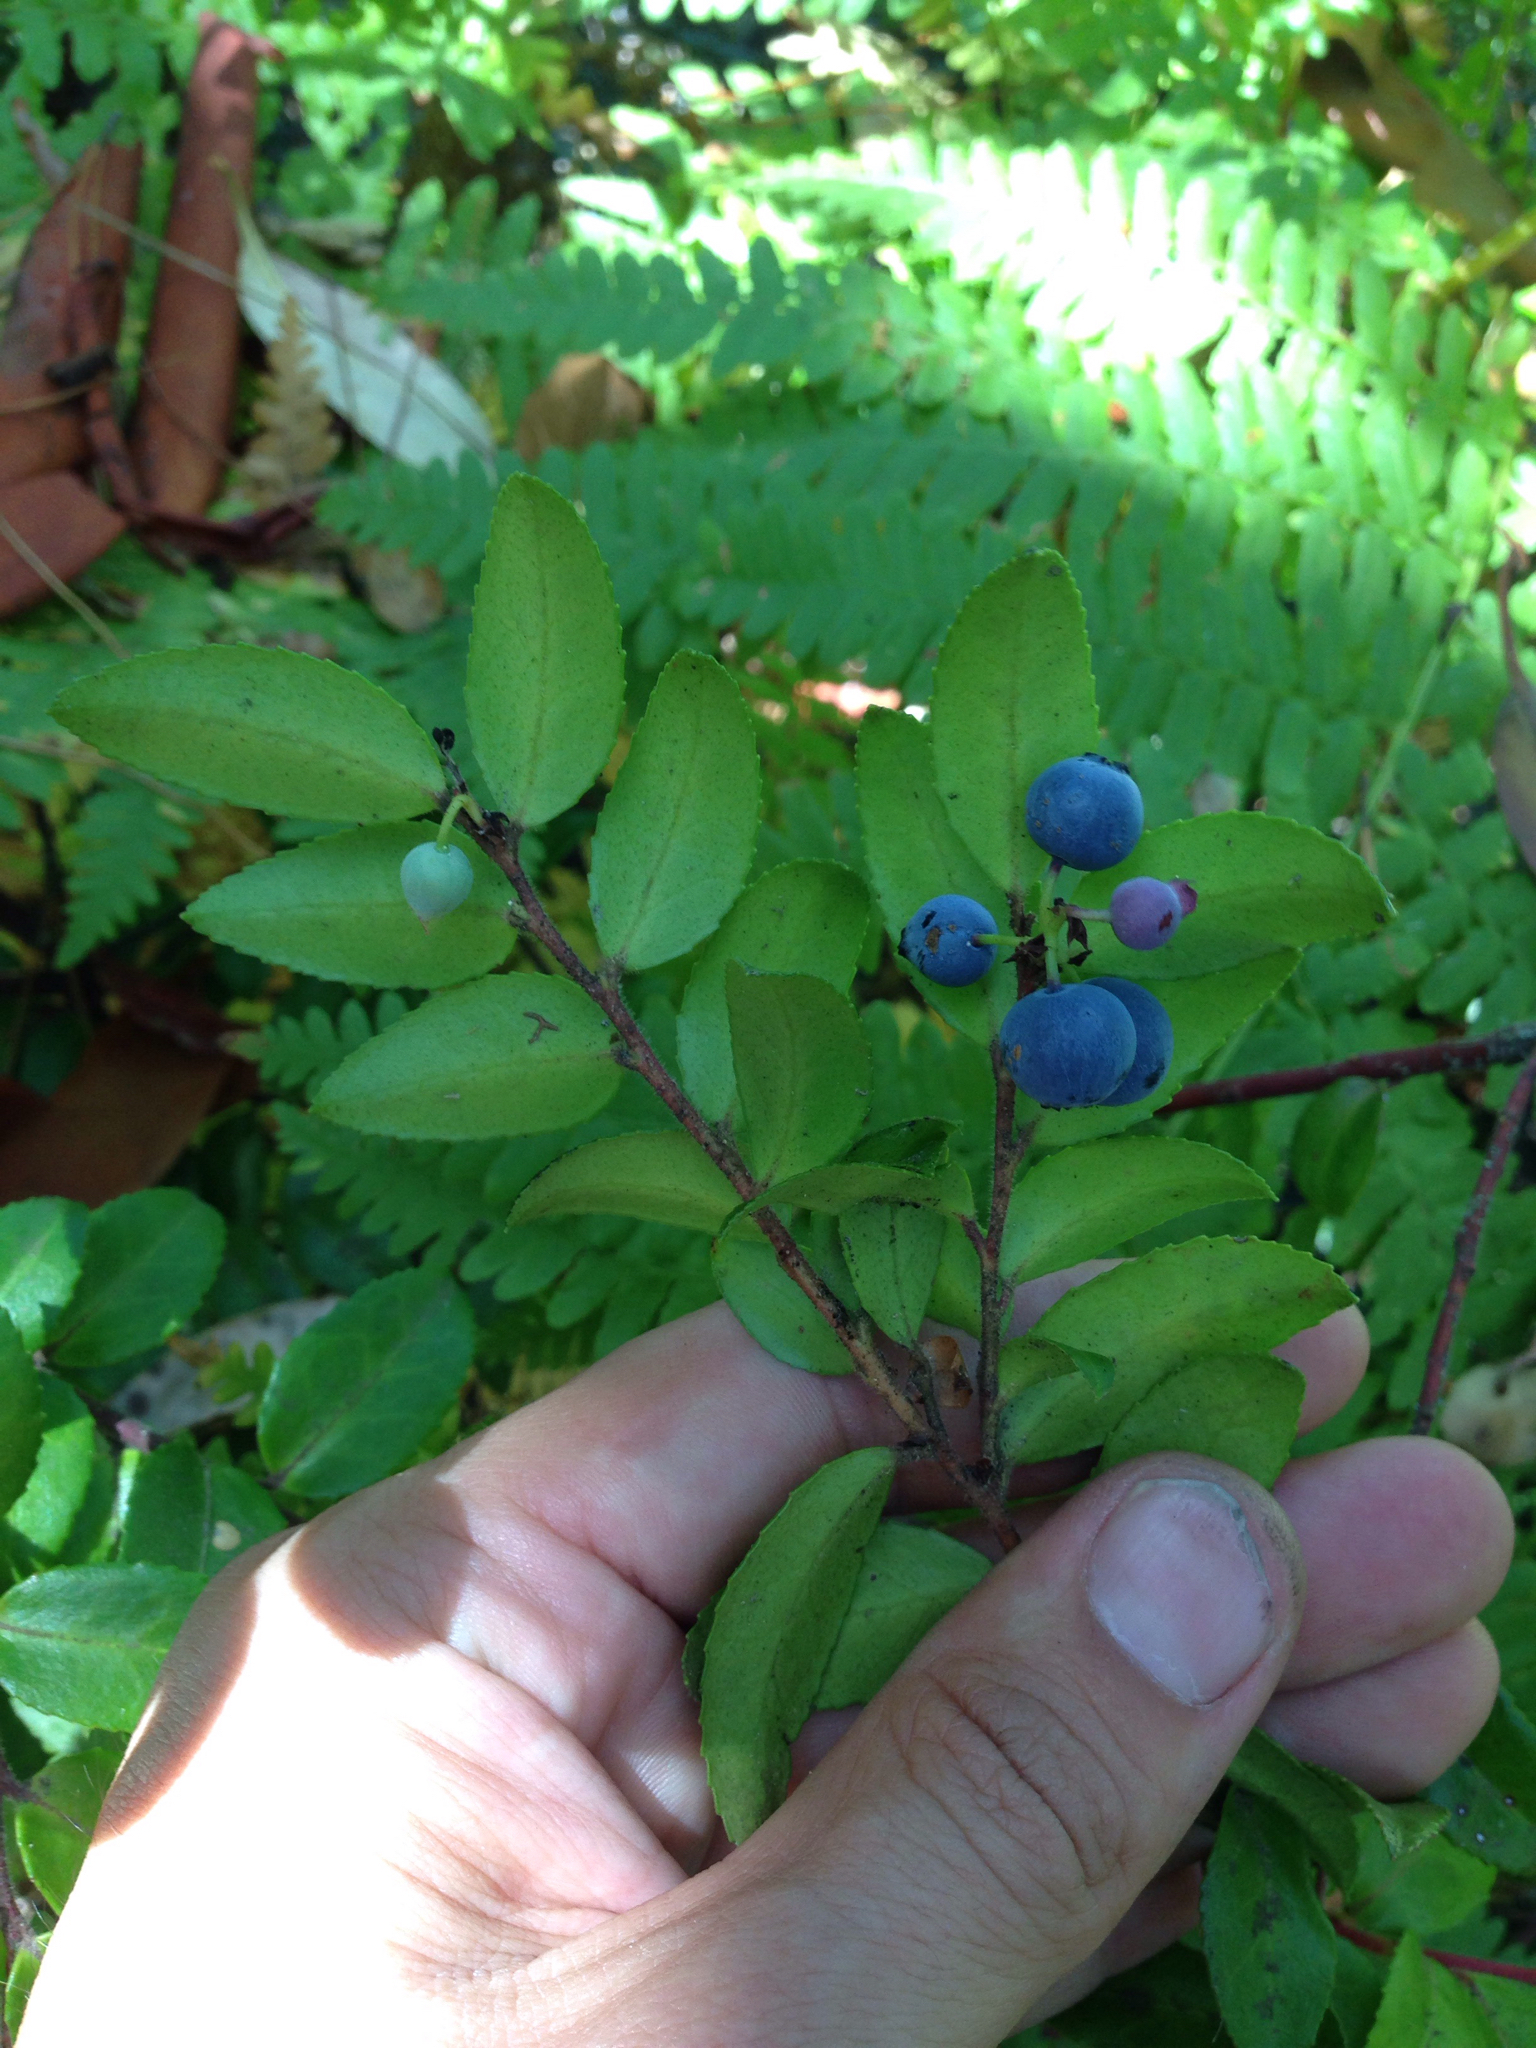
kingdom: Plantae
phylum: Tracheophyta
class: Magnoliopsida
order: Ericales
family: Ericaceae
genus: Vaccinium
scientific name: Vaccinium ovatum
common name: California-huckleberry
